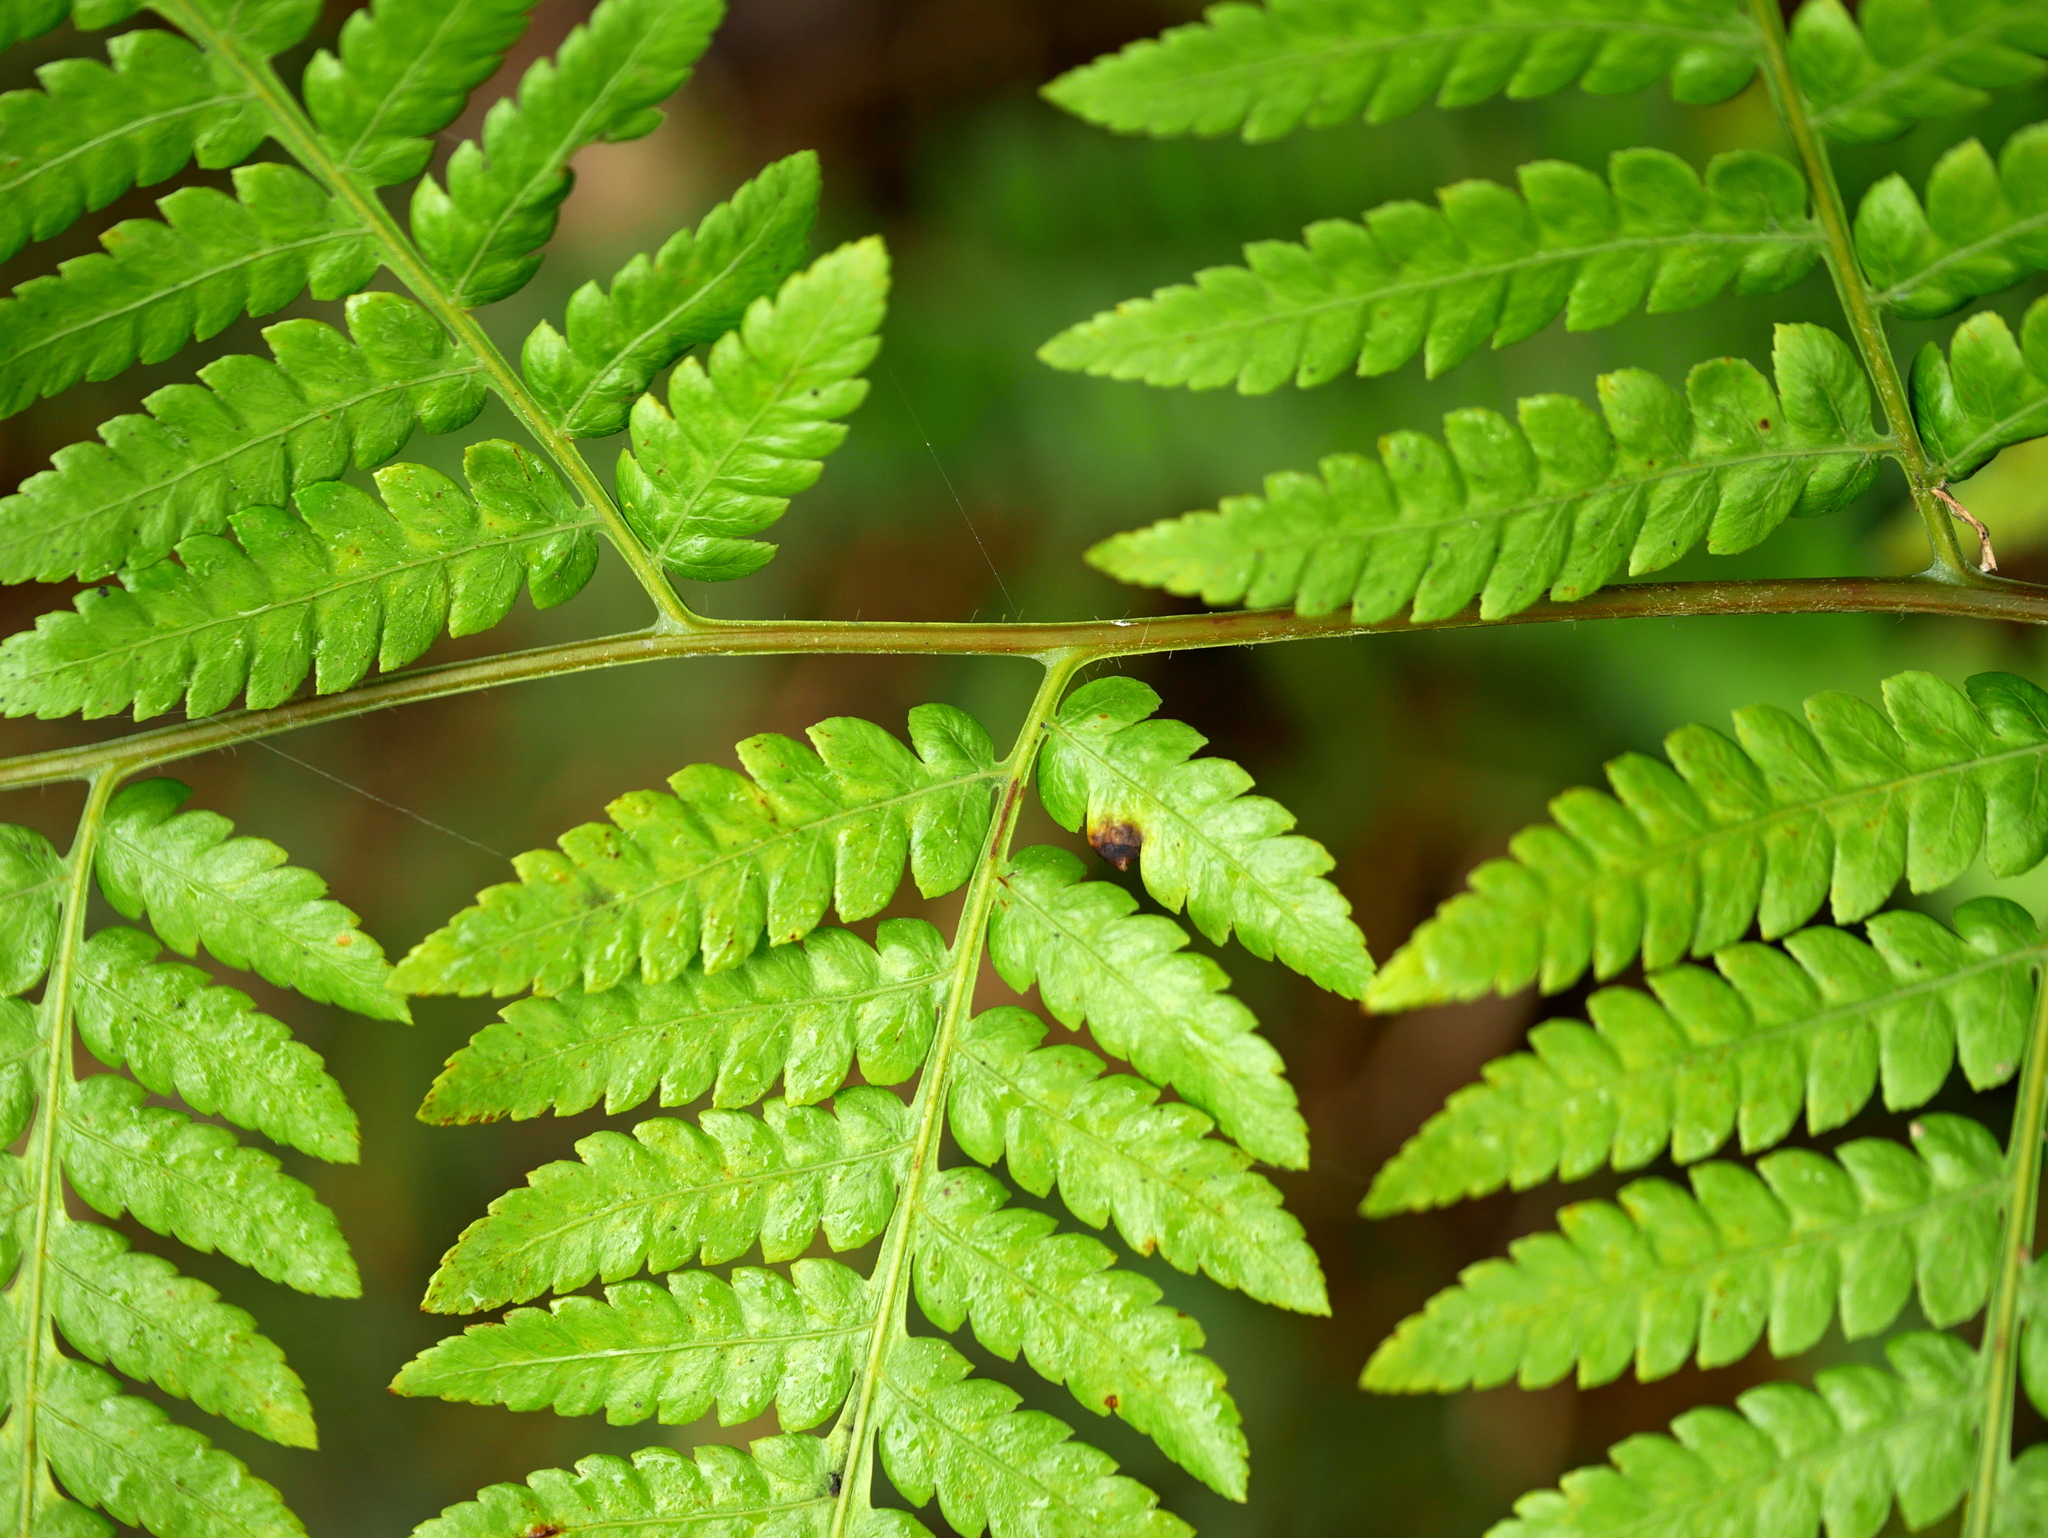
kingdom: Plantae
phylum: Tracheophyta
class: Polypodiopsida
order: Cyatheales
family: Cibotiaceae
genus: Cibotium
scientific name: Cibotium barometz
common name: Scythian-lamb
